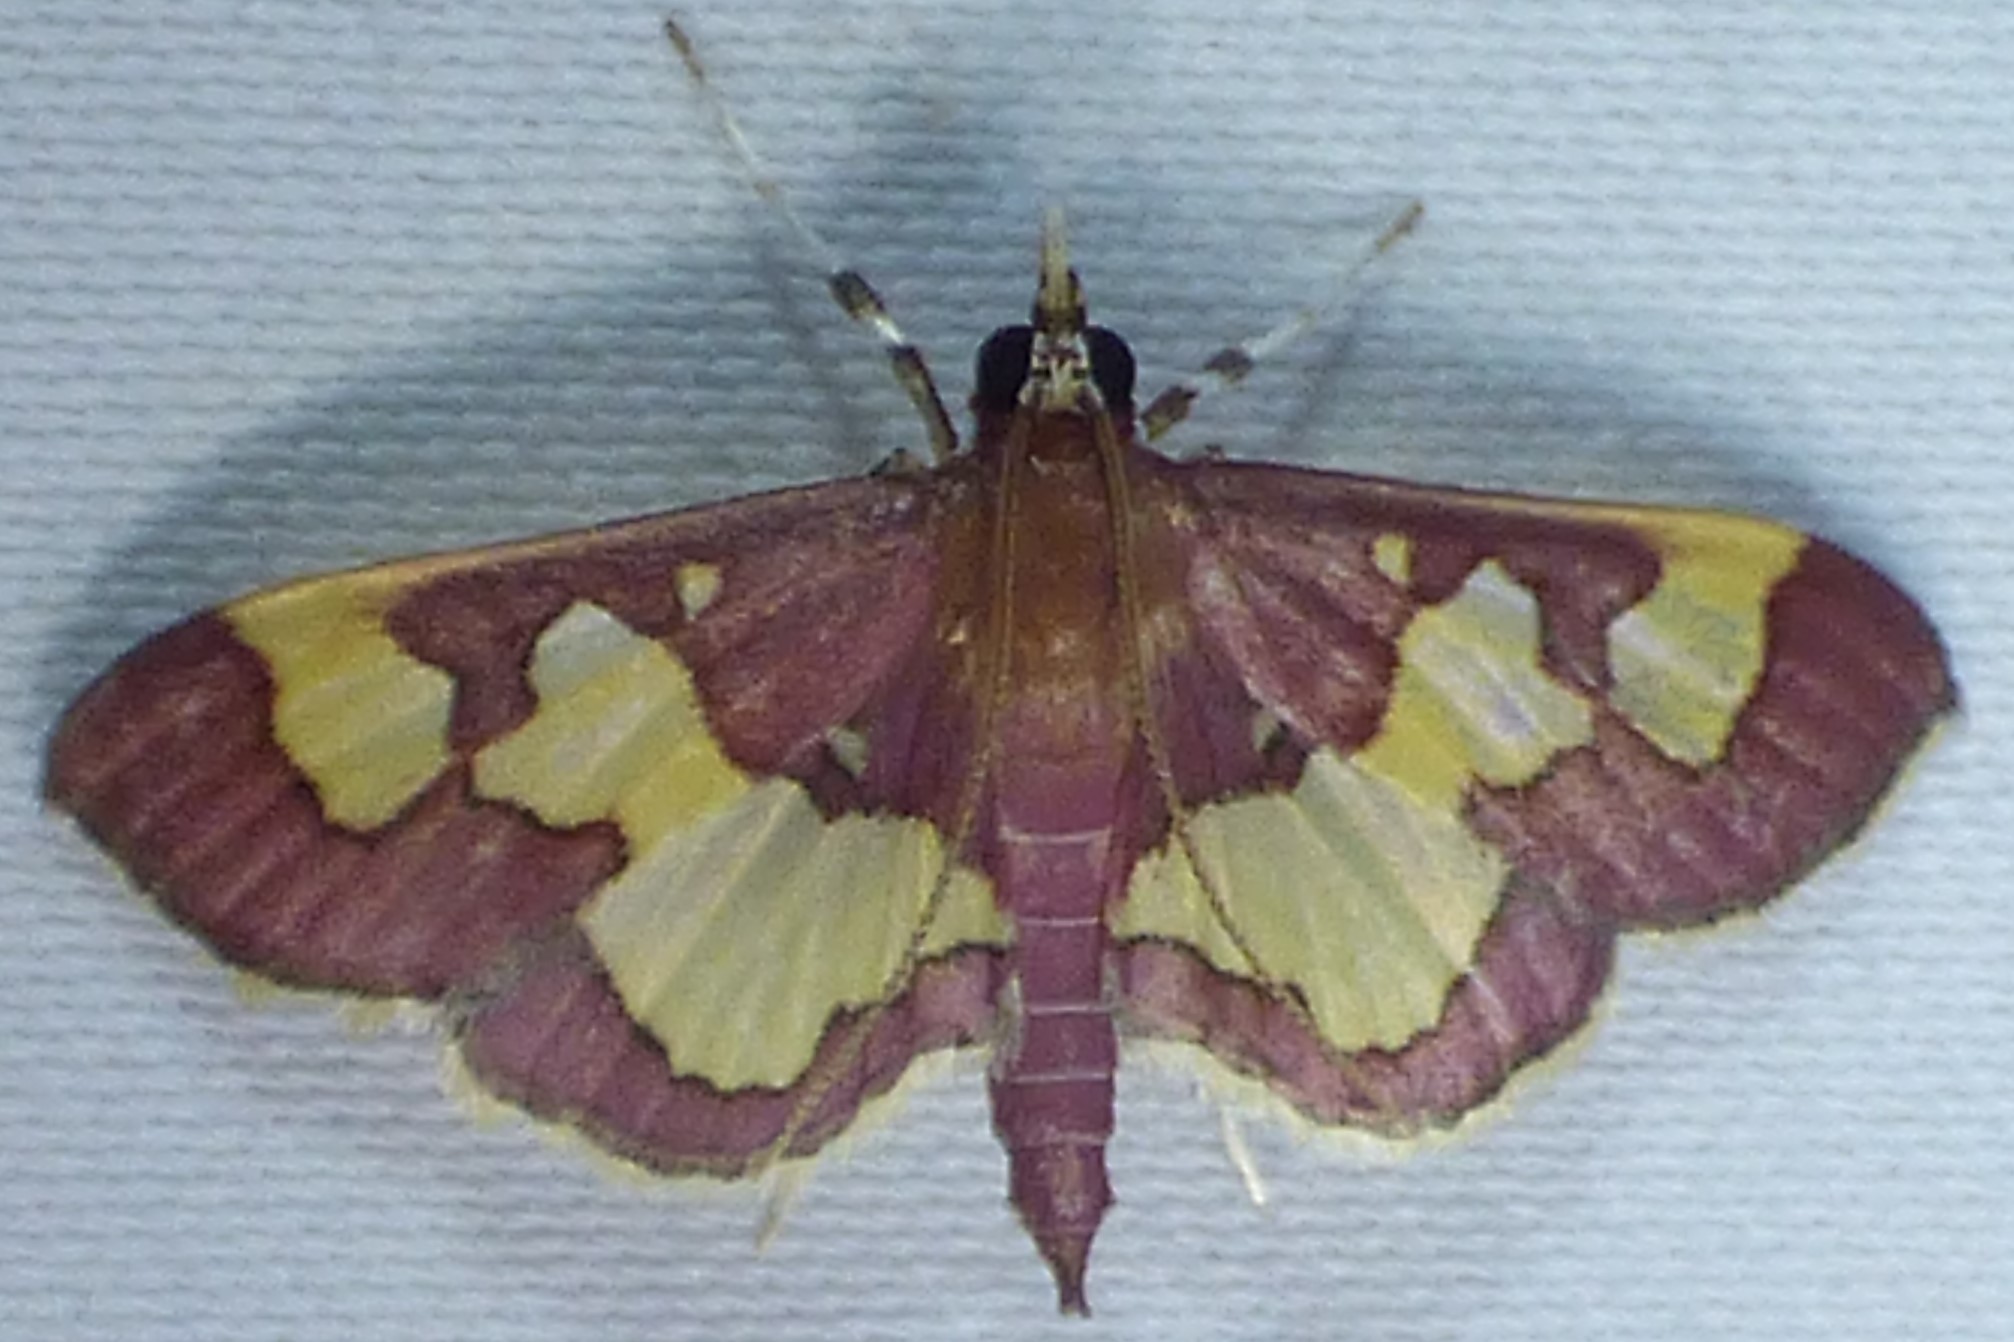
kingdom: Animalia
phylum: Arthropoda
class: Insecta
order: Lepidoptera
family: Crambidae
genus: Colomychus
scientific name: Colomychus talis
